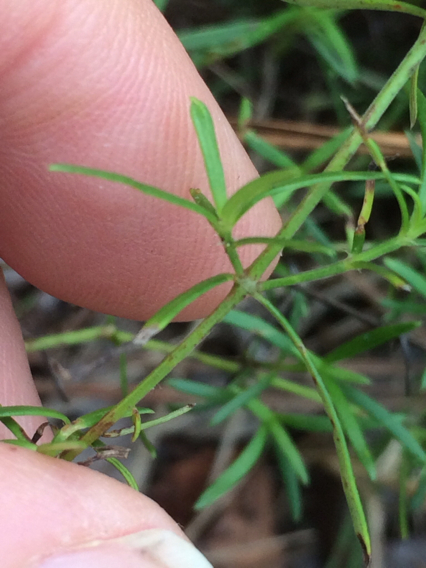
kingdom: Plantae
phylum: Tracheophyta
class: Magnoliopsida
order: Gentianales
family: Rubiaceae
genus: Stenaria
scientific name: Stenaria nigricans
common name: Diamondflowers
